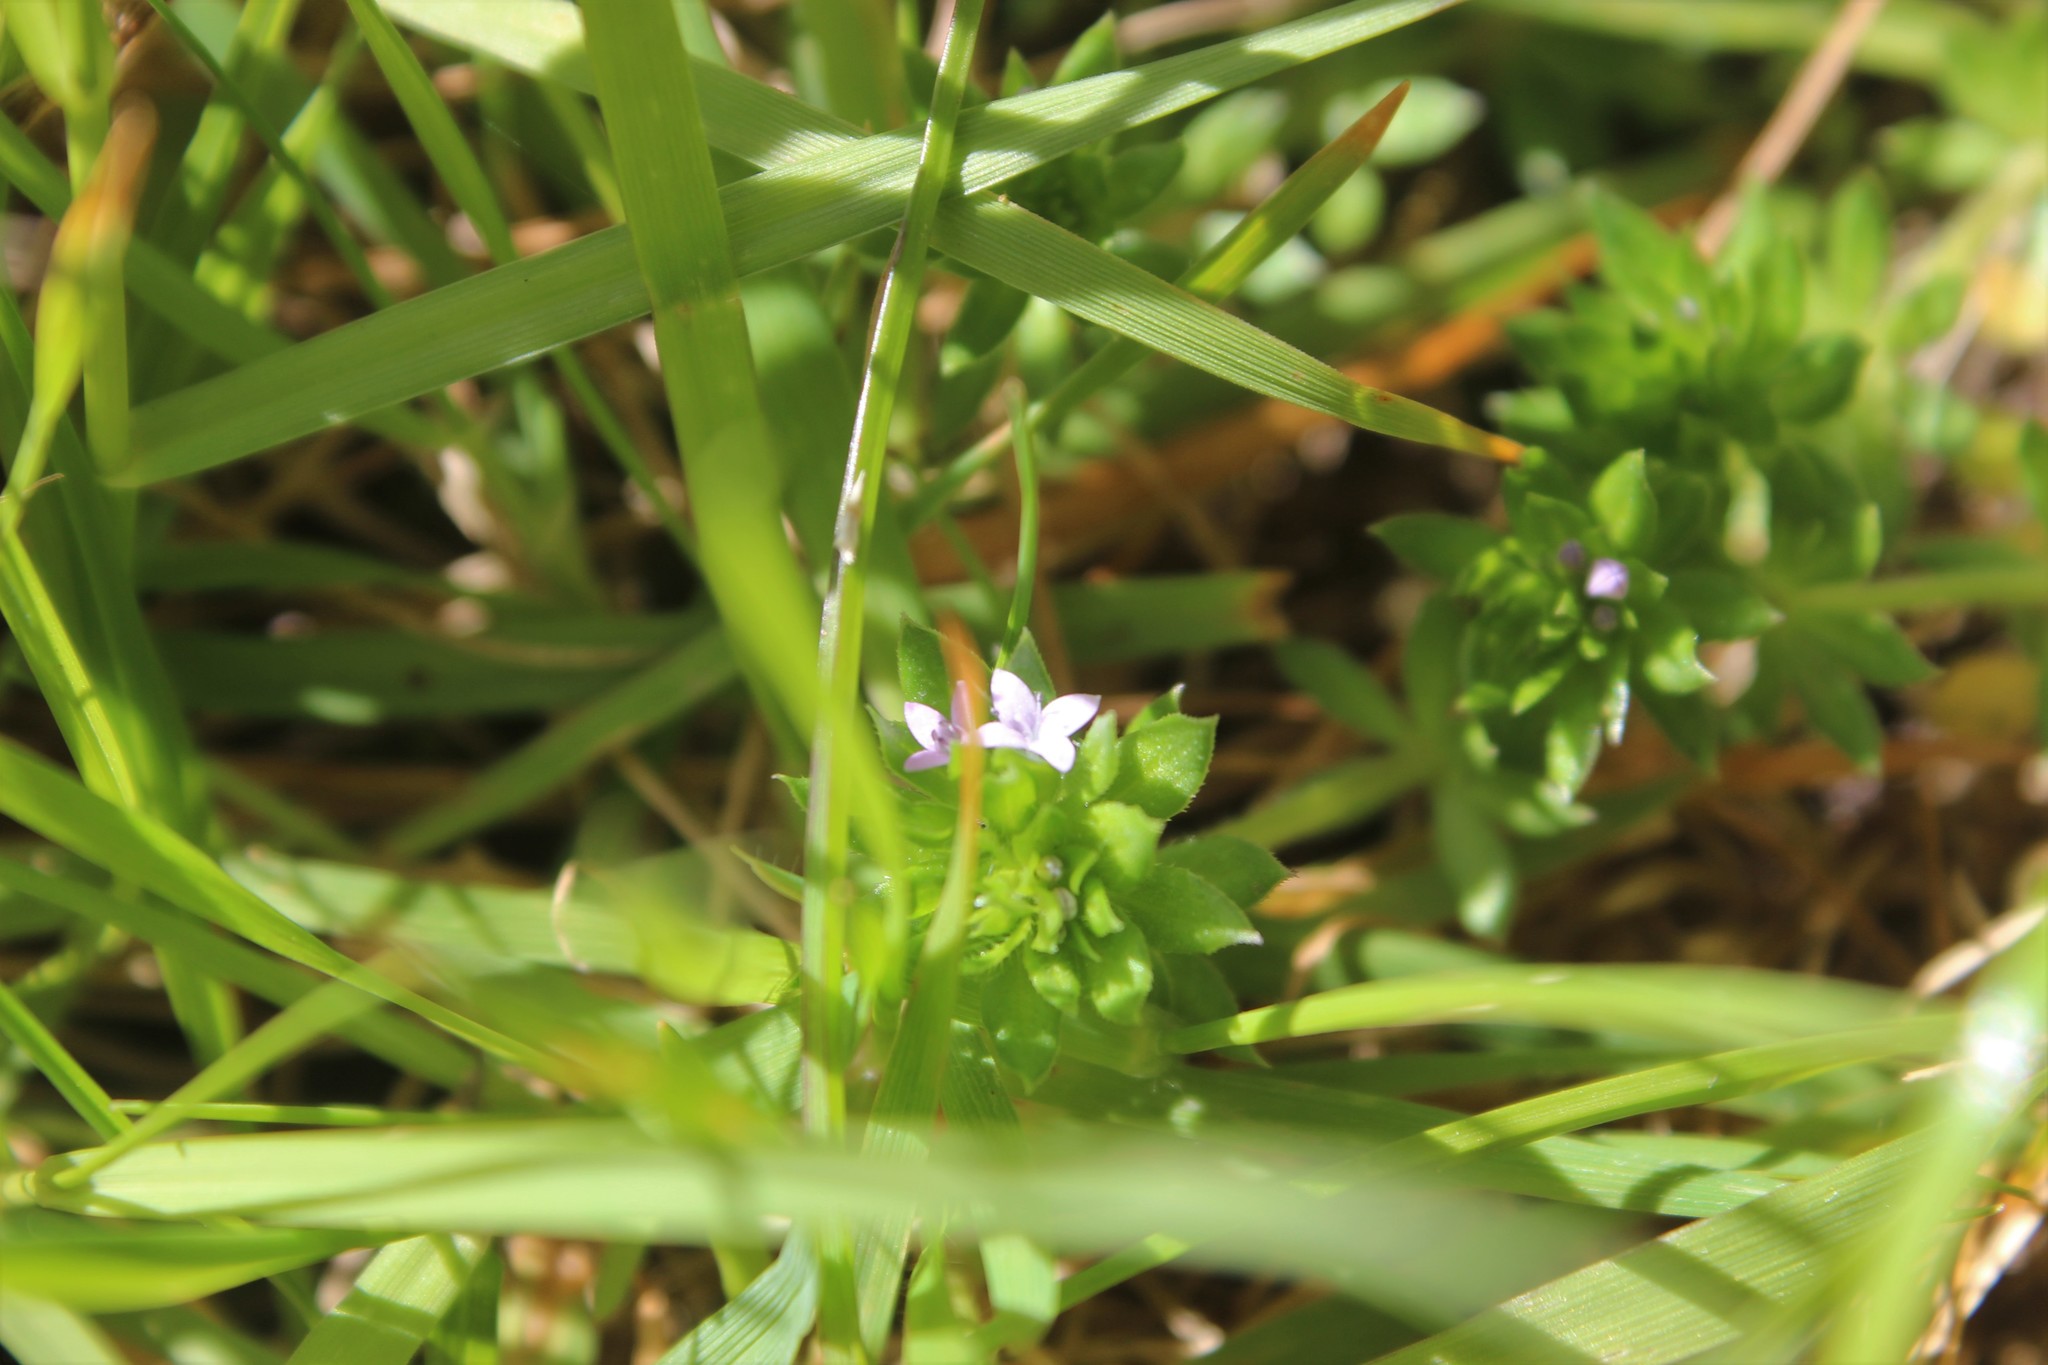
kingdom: Plantae
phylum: Tracheophyta
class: Magnoliopsida
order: Gentianales
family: Rubiaceae
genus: Sherardia
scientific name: Sherardia arvensis
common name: Field madder
